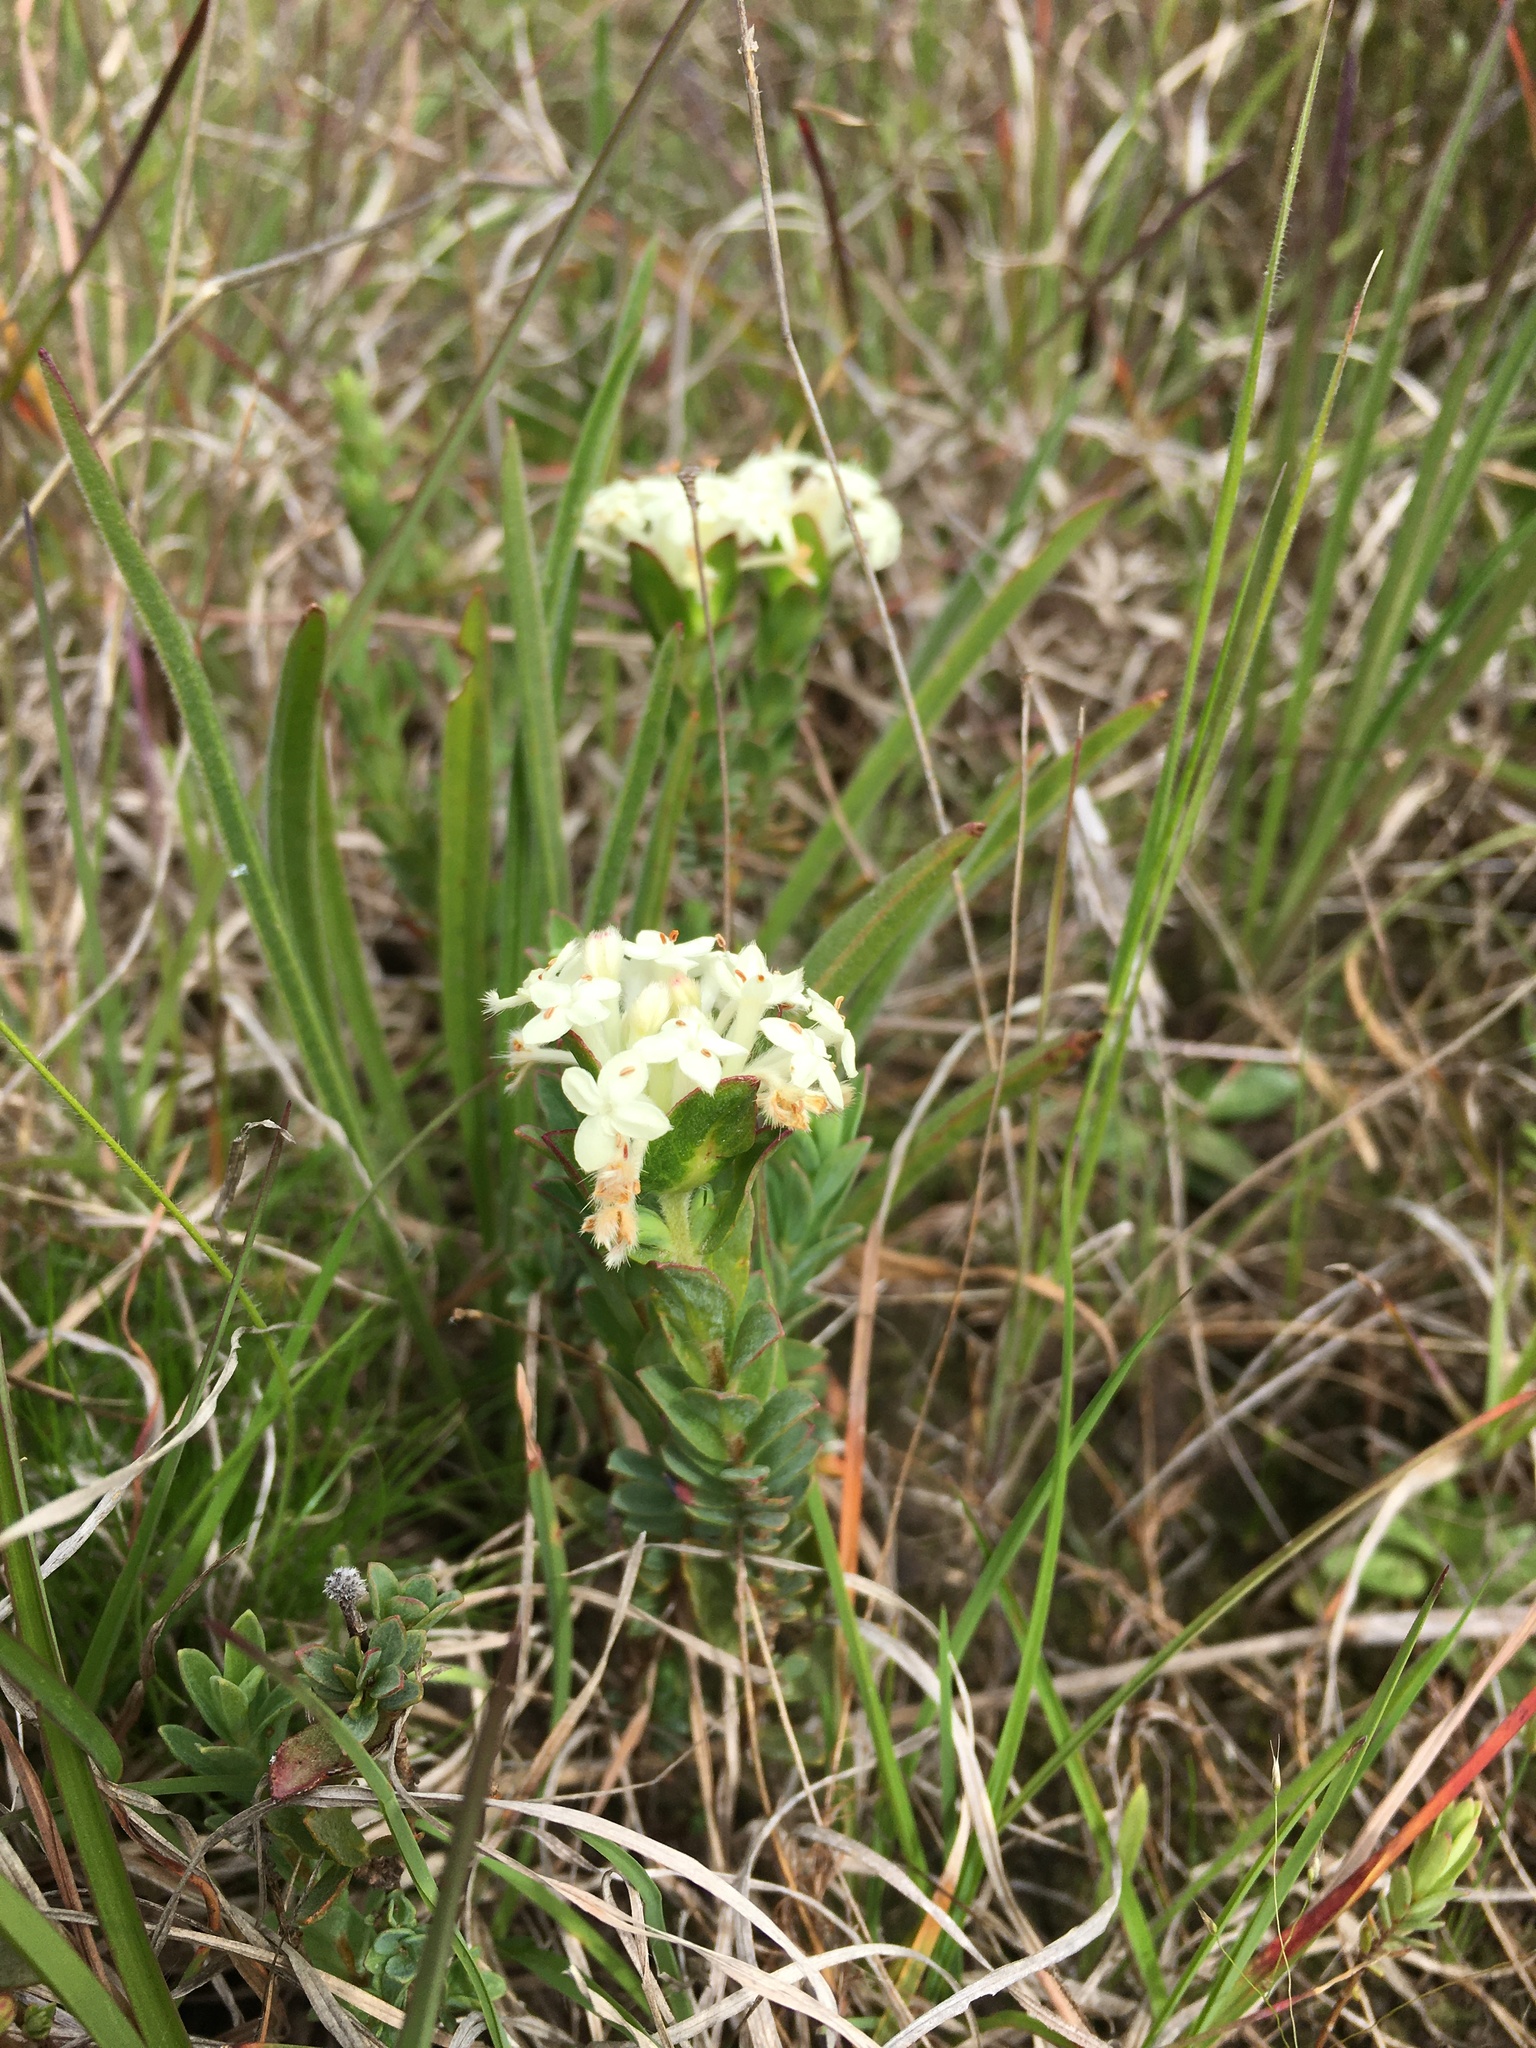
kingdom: Plantae
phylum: Tracheophyta
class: Magnoliopsida
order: Malvales
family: Thymelaeaceae
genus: Pimelea
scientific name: Pimelea humilis
